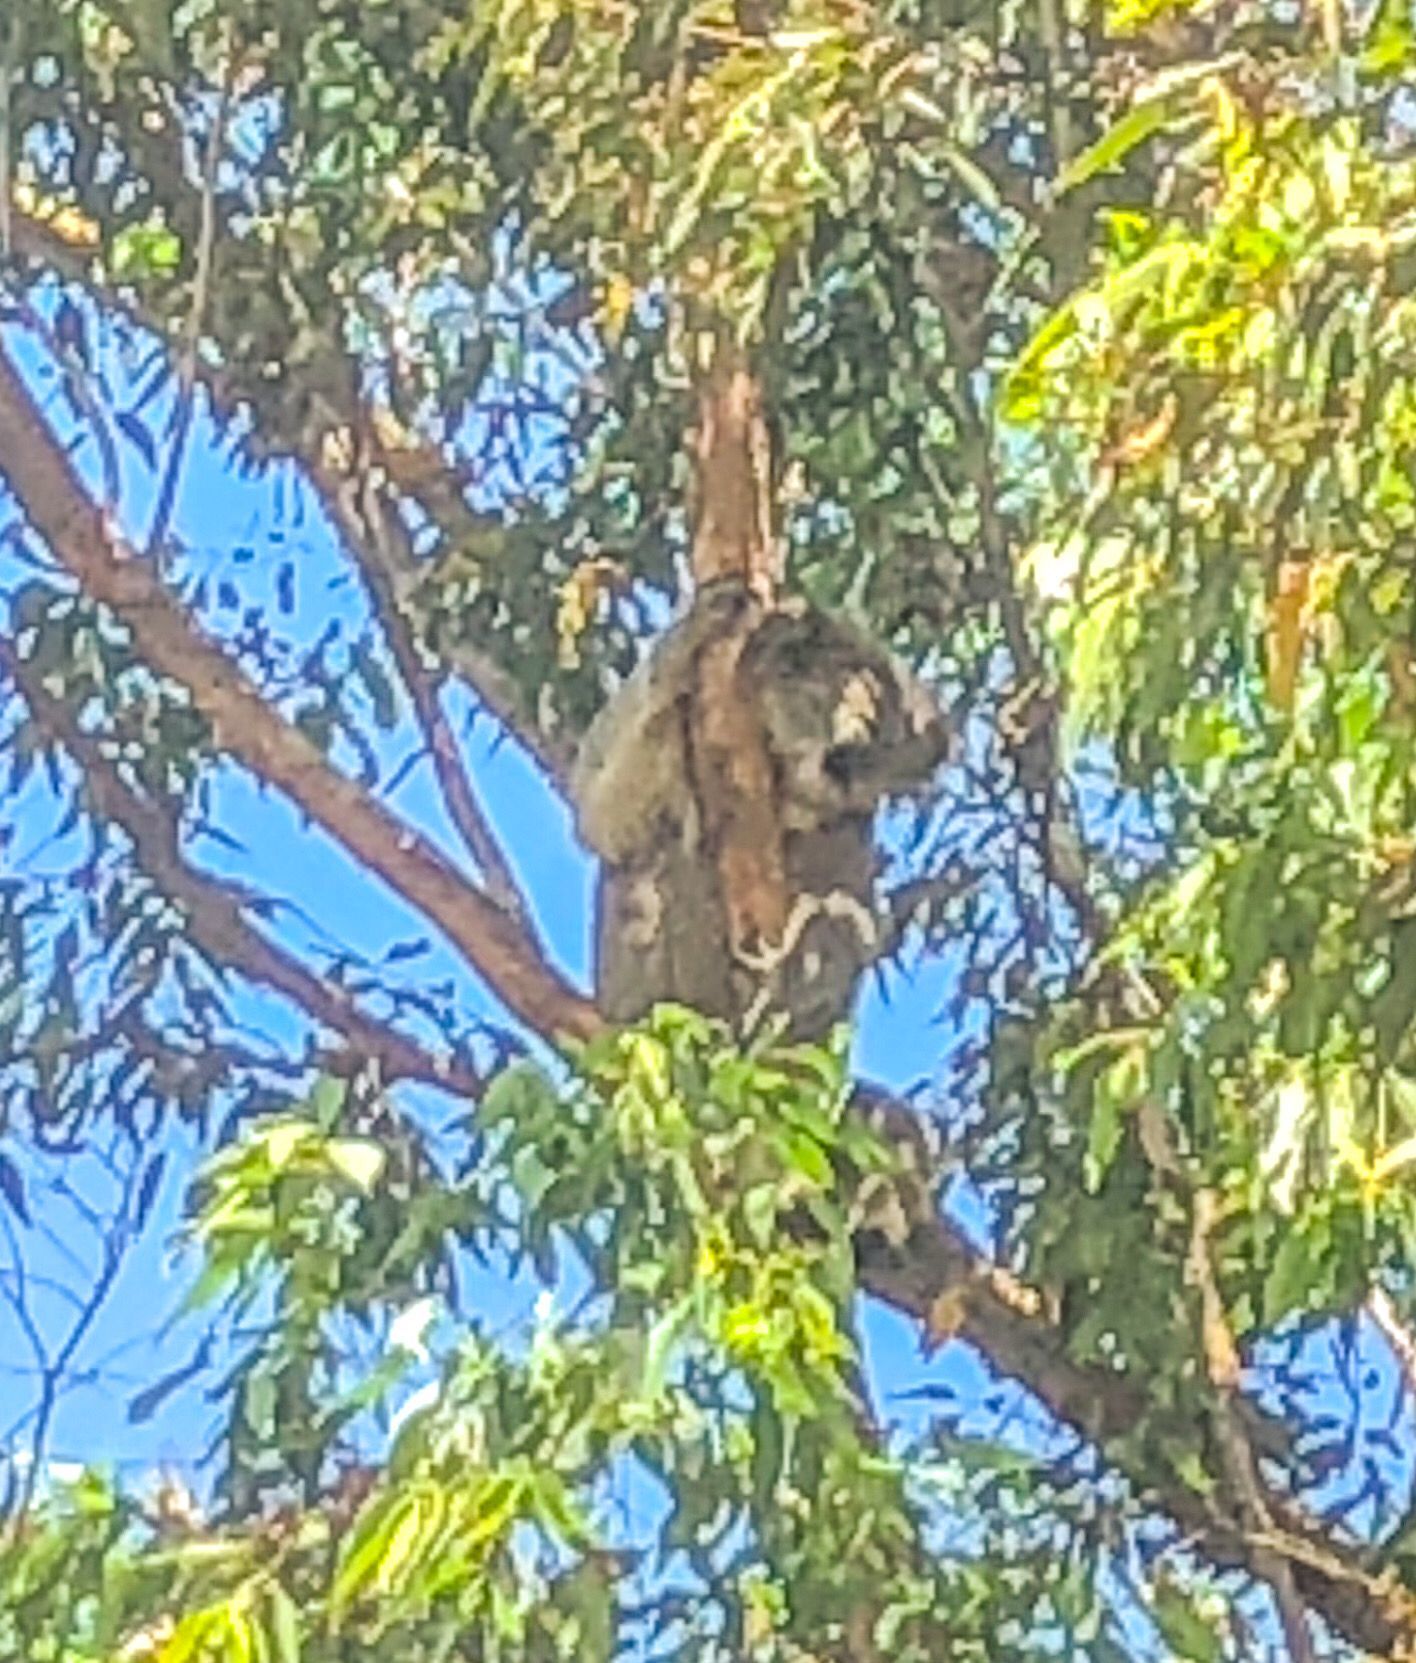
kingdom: Animalia
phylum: Chordata
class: Mammalia
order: Diprotodontia
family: Phascolarctidae
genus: Phascolarctos
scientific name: Phascolarctos cinereus
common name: Koala
